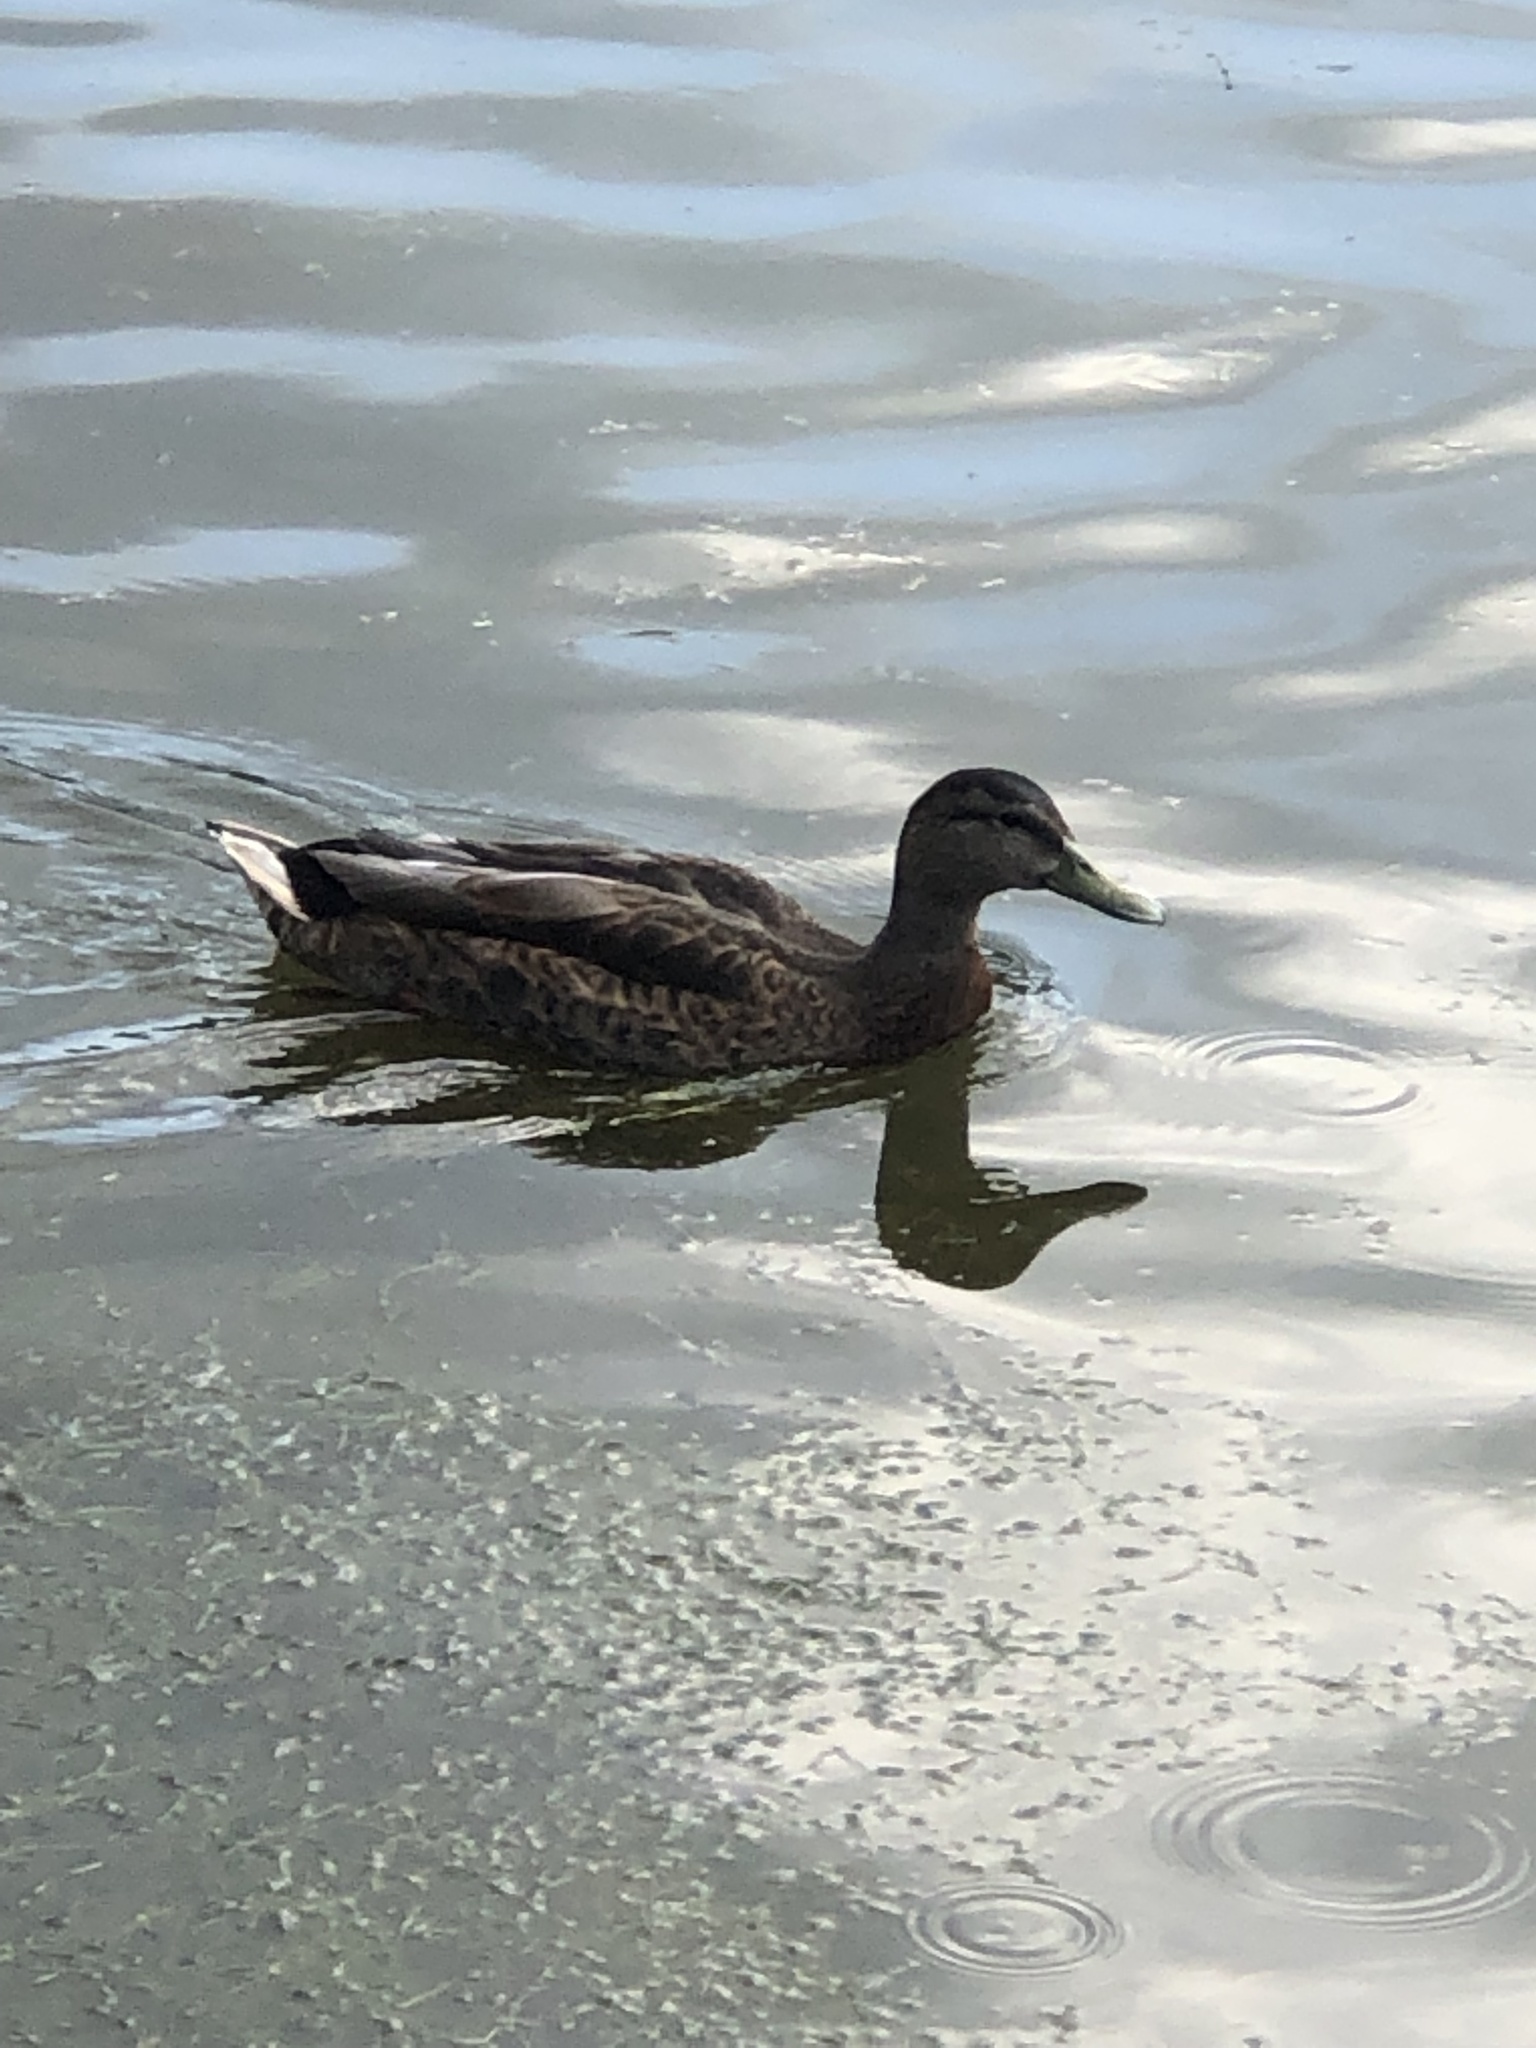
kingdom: Animalia
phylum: Chordata
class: Aves
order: Anseriformes
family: Anatidae
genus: Anas
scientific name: Anas platyrhynchos
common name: Mallard
